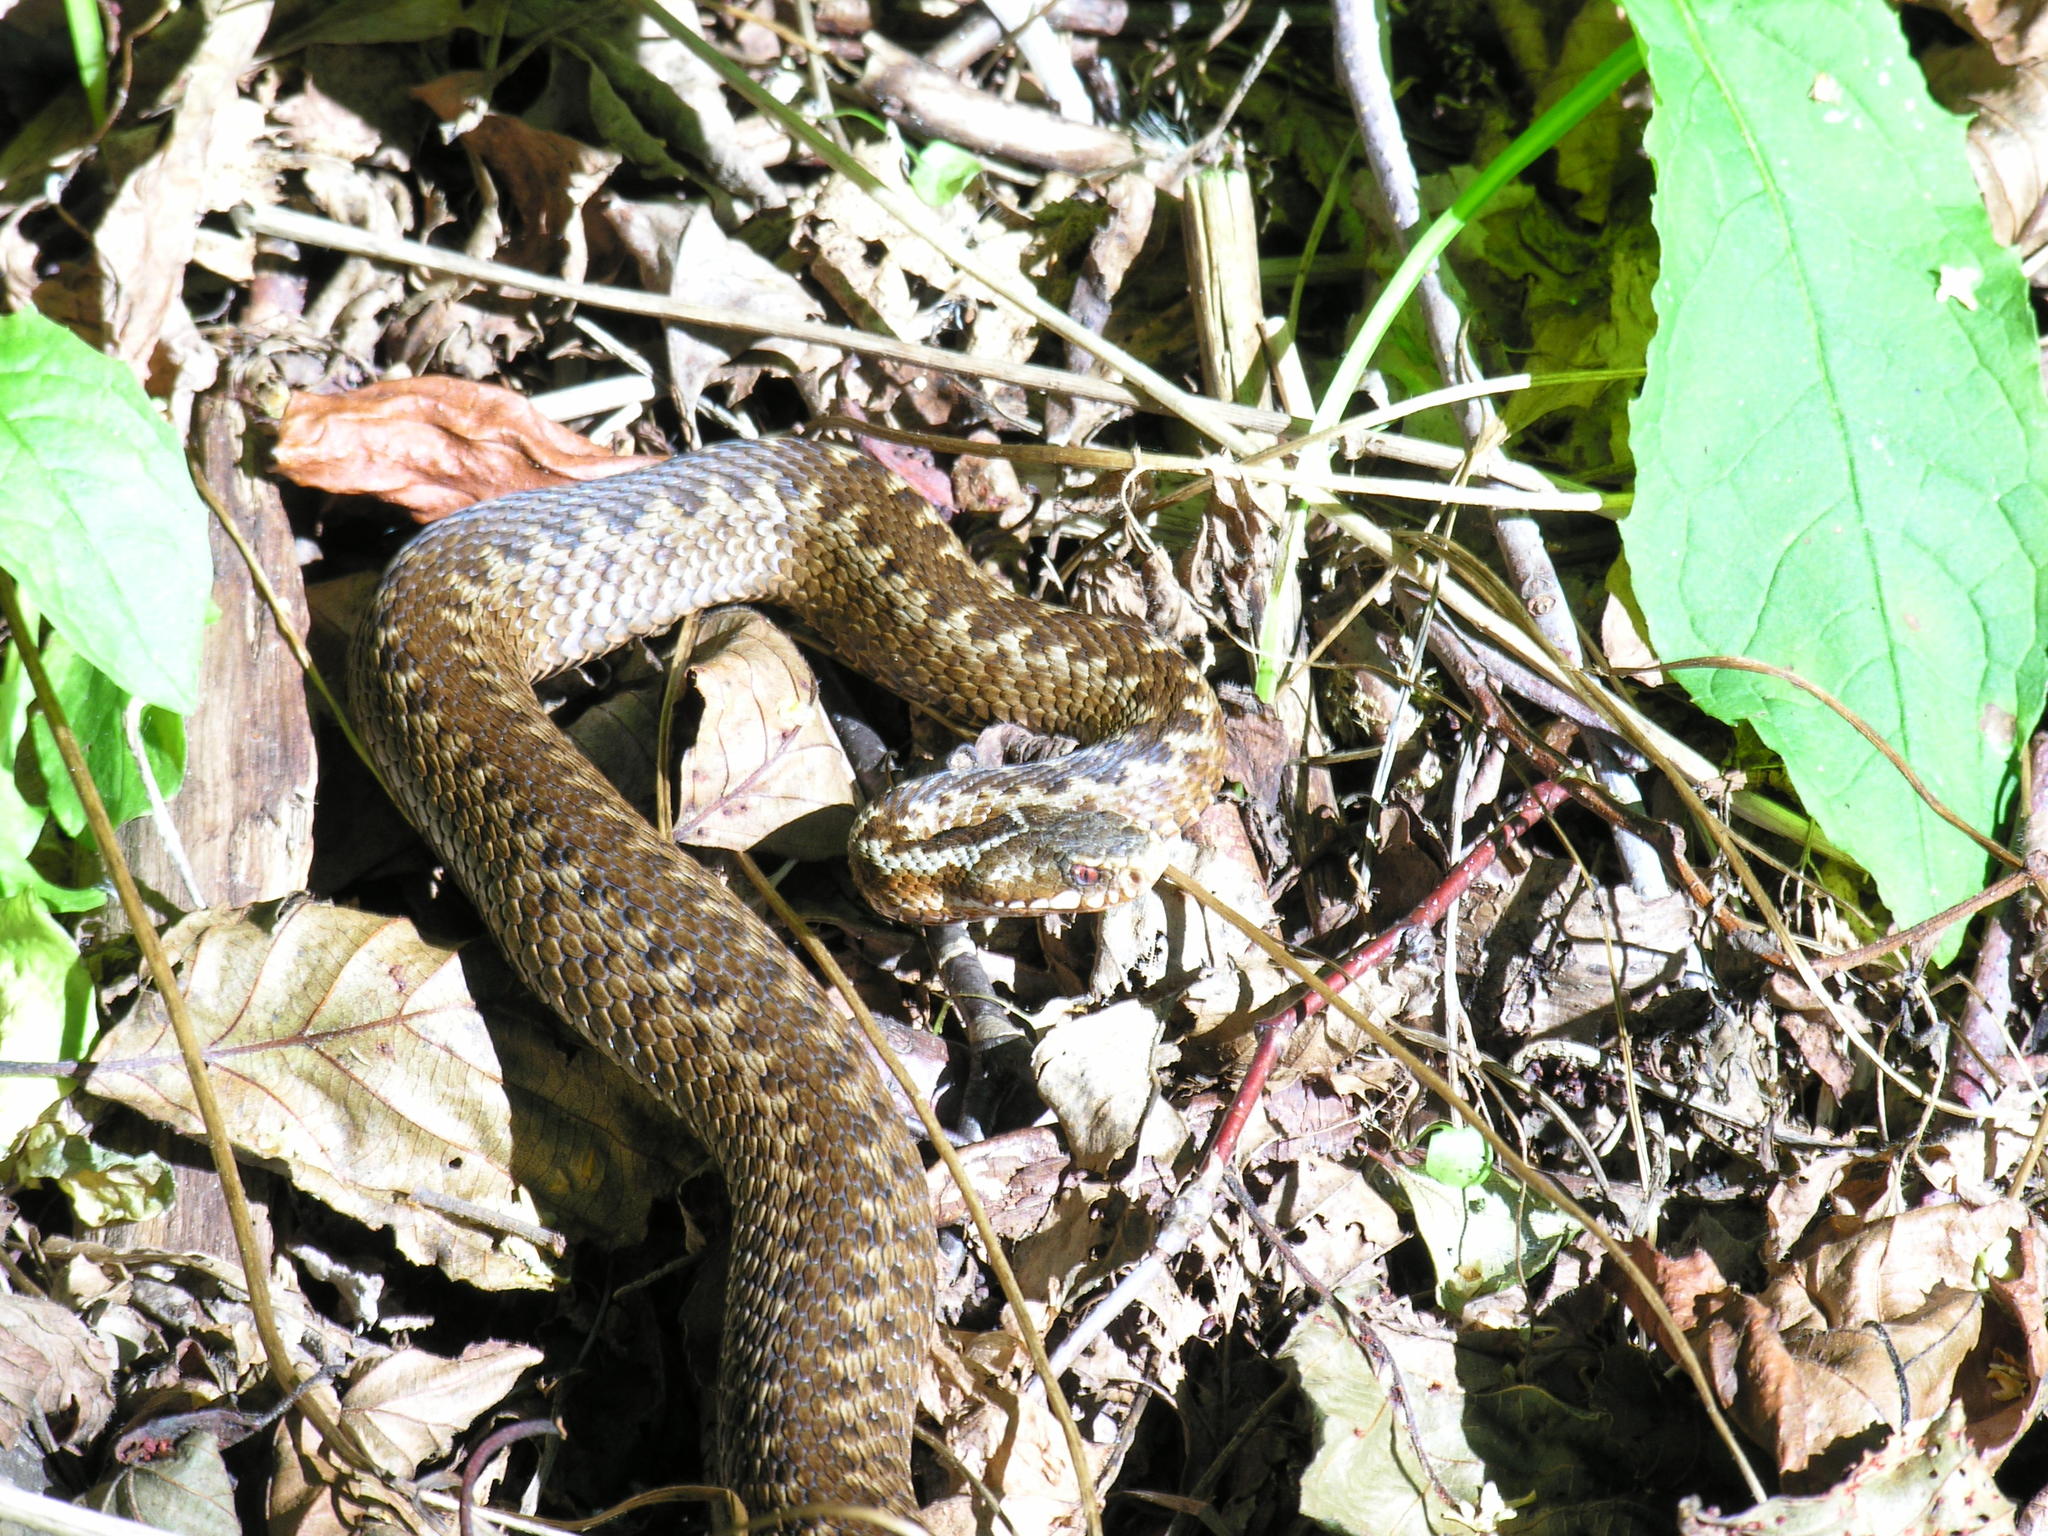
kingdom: Animalia
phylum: Chordata
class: Squamata
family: Viperidae
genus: Vipera
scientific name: Vipera berus
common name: Adder
